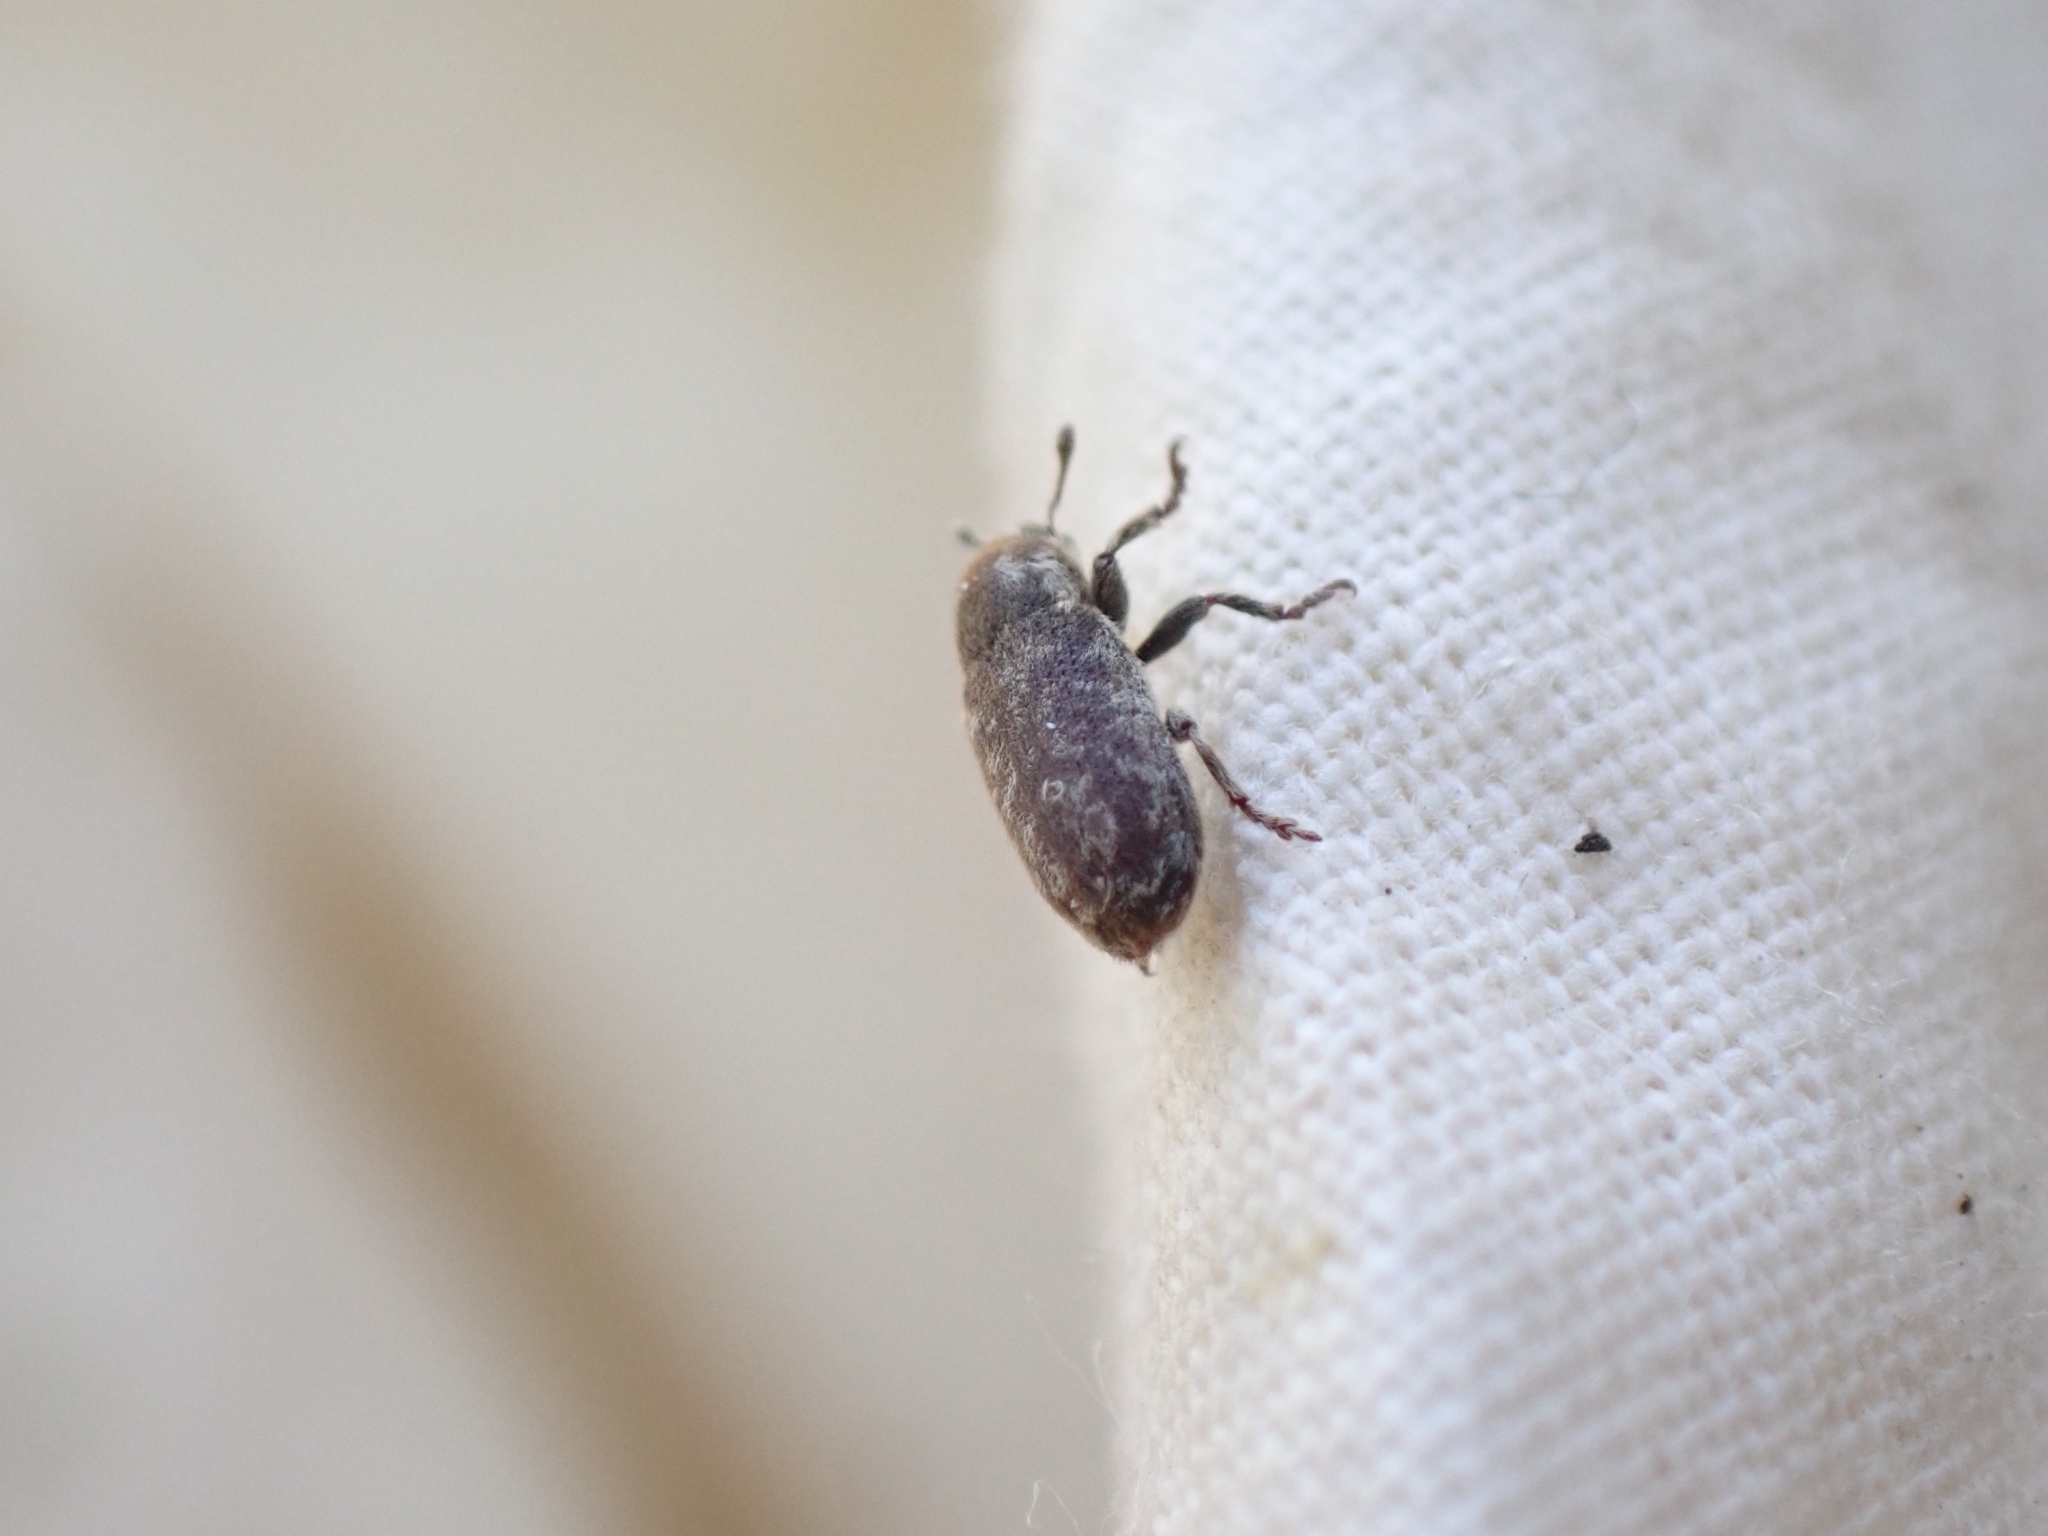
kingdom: Animalia
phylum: Arthropoda
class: Insecta
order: Coleoptera
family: Curculionidae
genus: Bangasternus
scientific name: Bangasternus fausti
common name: Broad-nosed knapweed seedhead weevil
